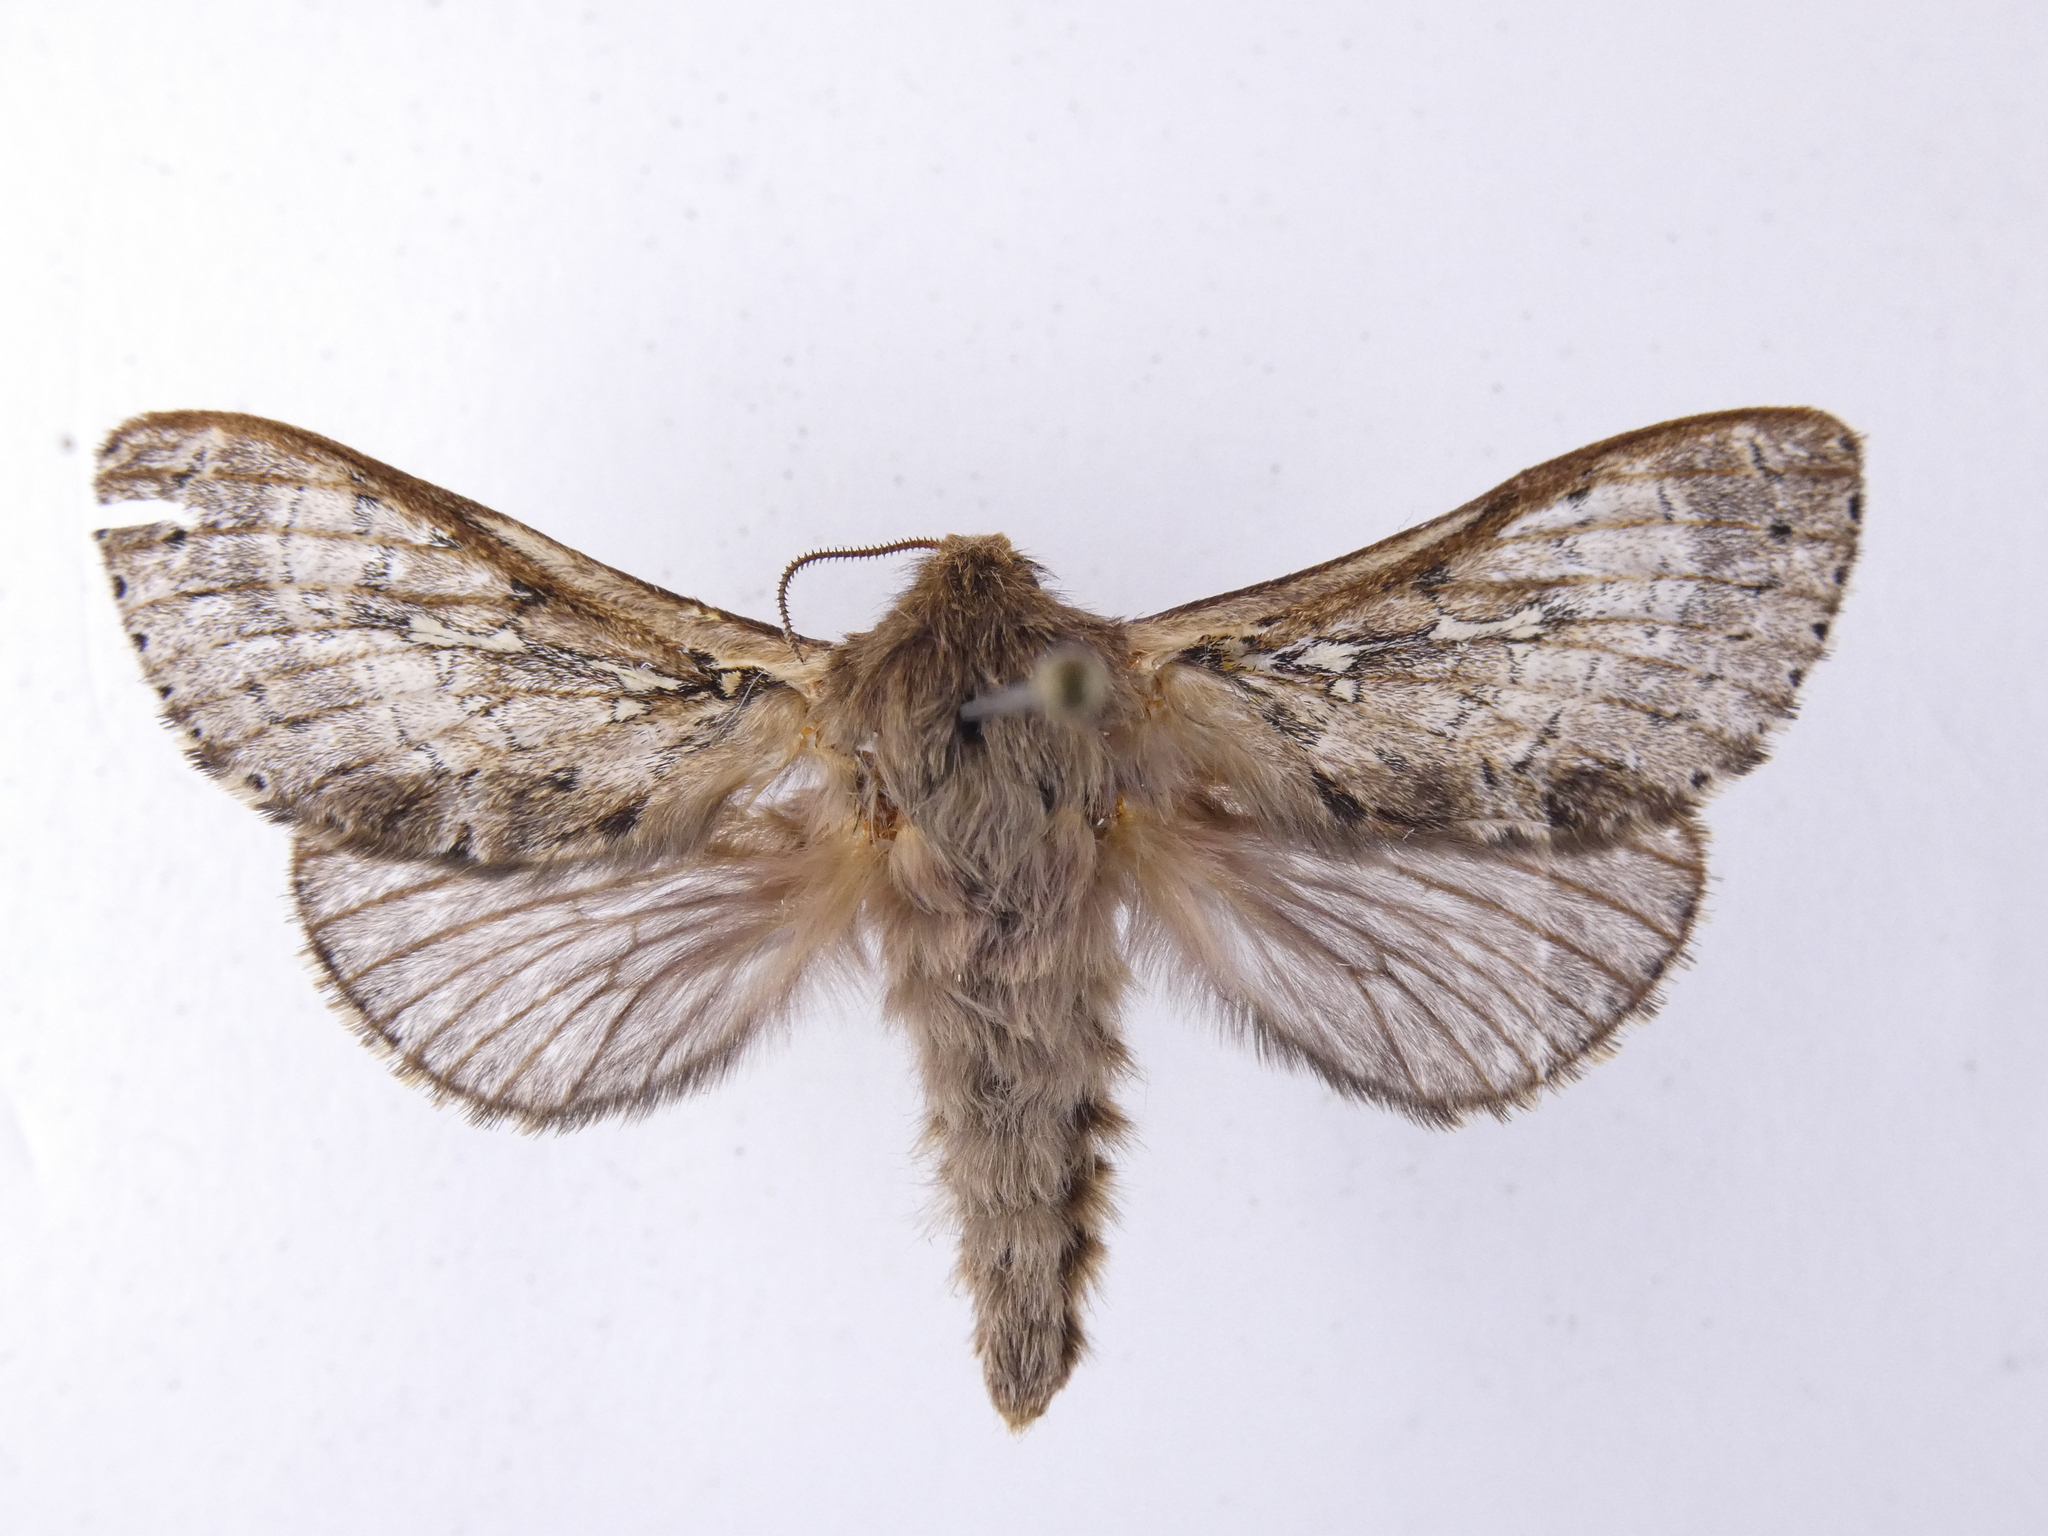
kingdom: Animalia
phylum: Arthropoda
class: Insecta
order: Lepidoptera
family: Hepialidae
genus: Wiseana
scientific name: Wiseana cervinata
